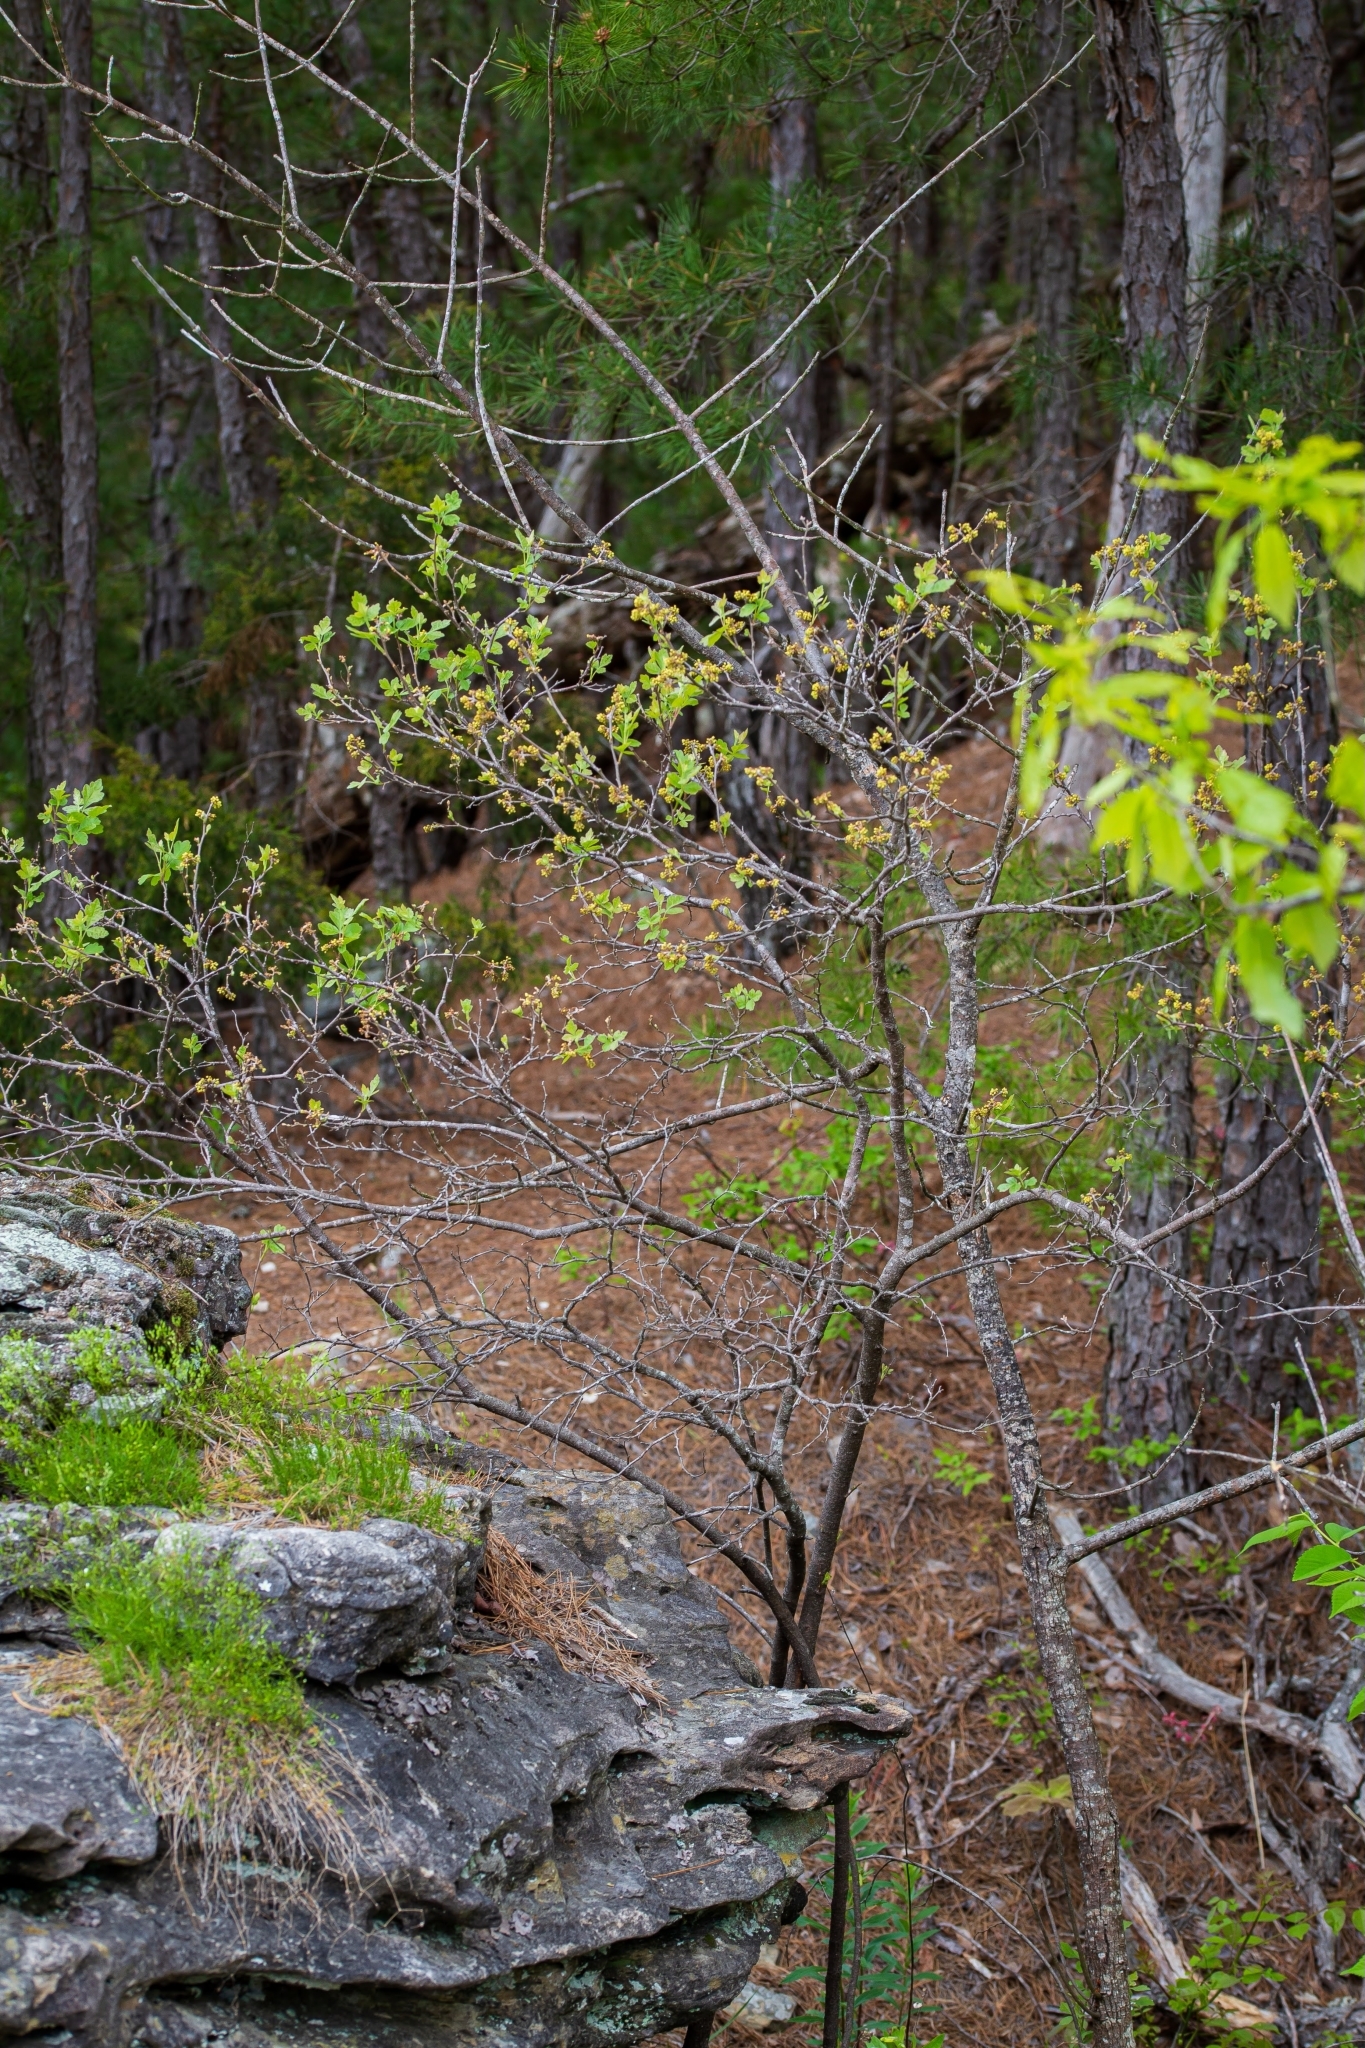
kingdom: Plantae
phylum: Tracheophyta
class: Magnoliopsida
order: Sapindales
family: Anacardiaceae
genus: Rhus
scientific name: Rhus aromatica
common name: Aromatic sumac
